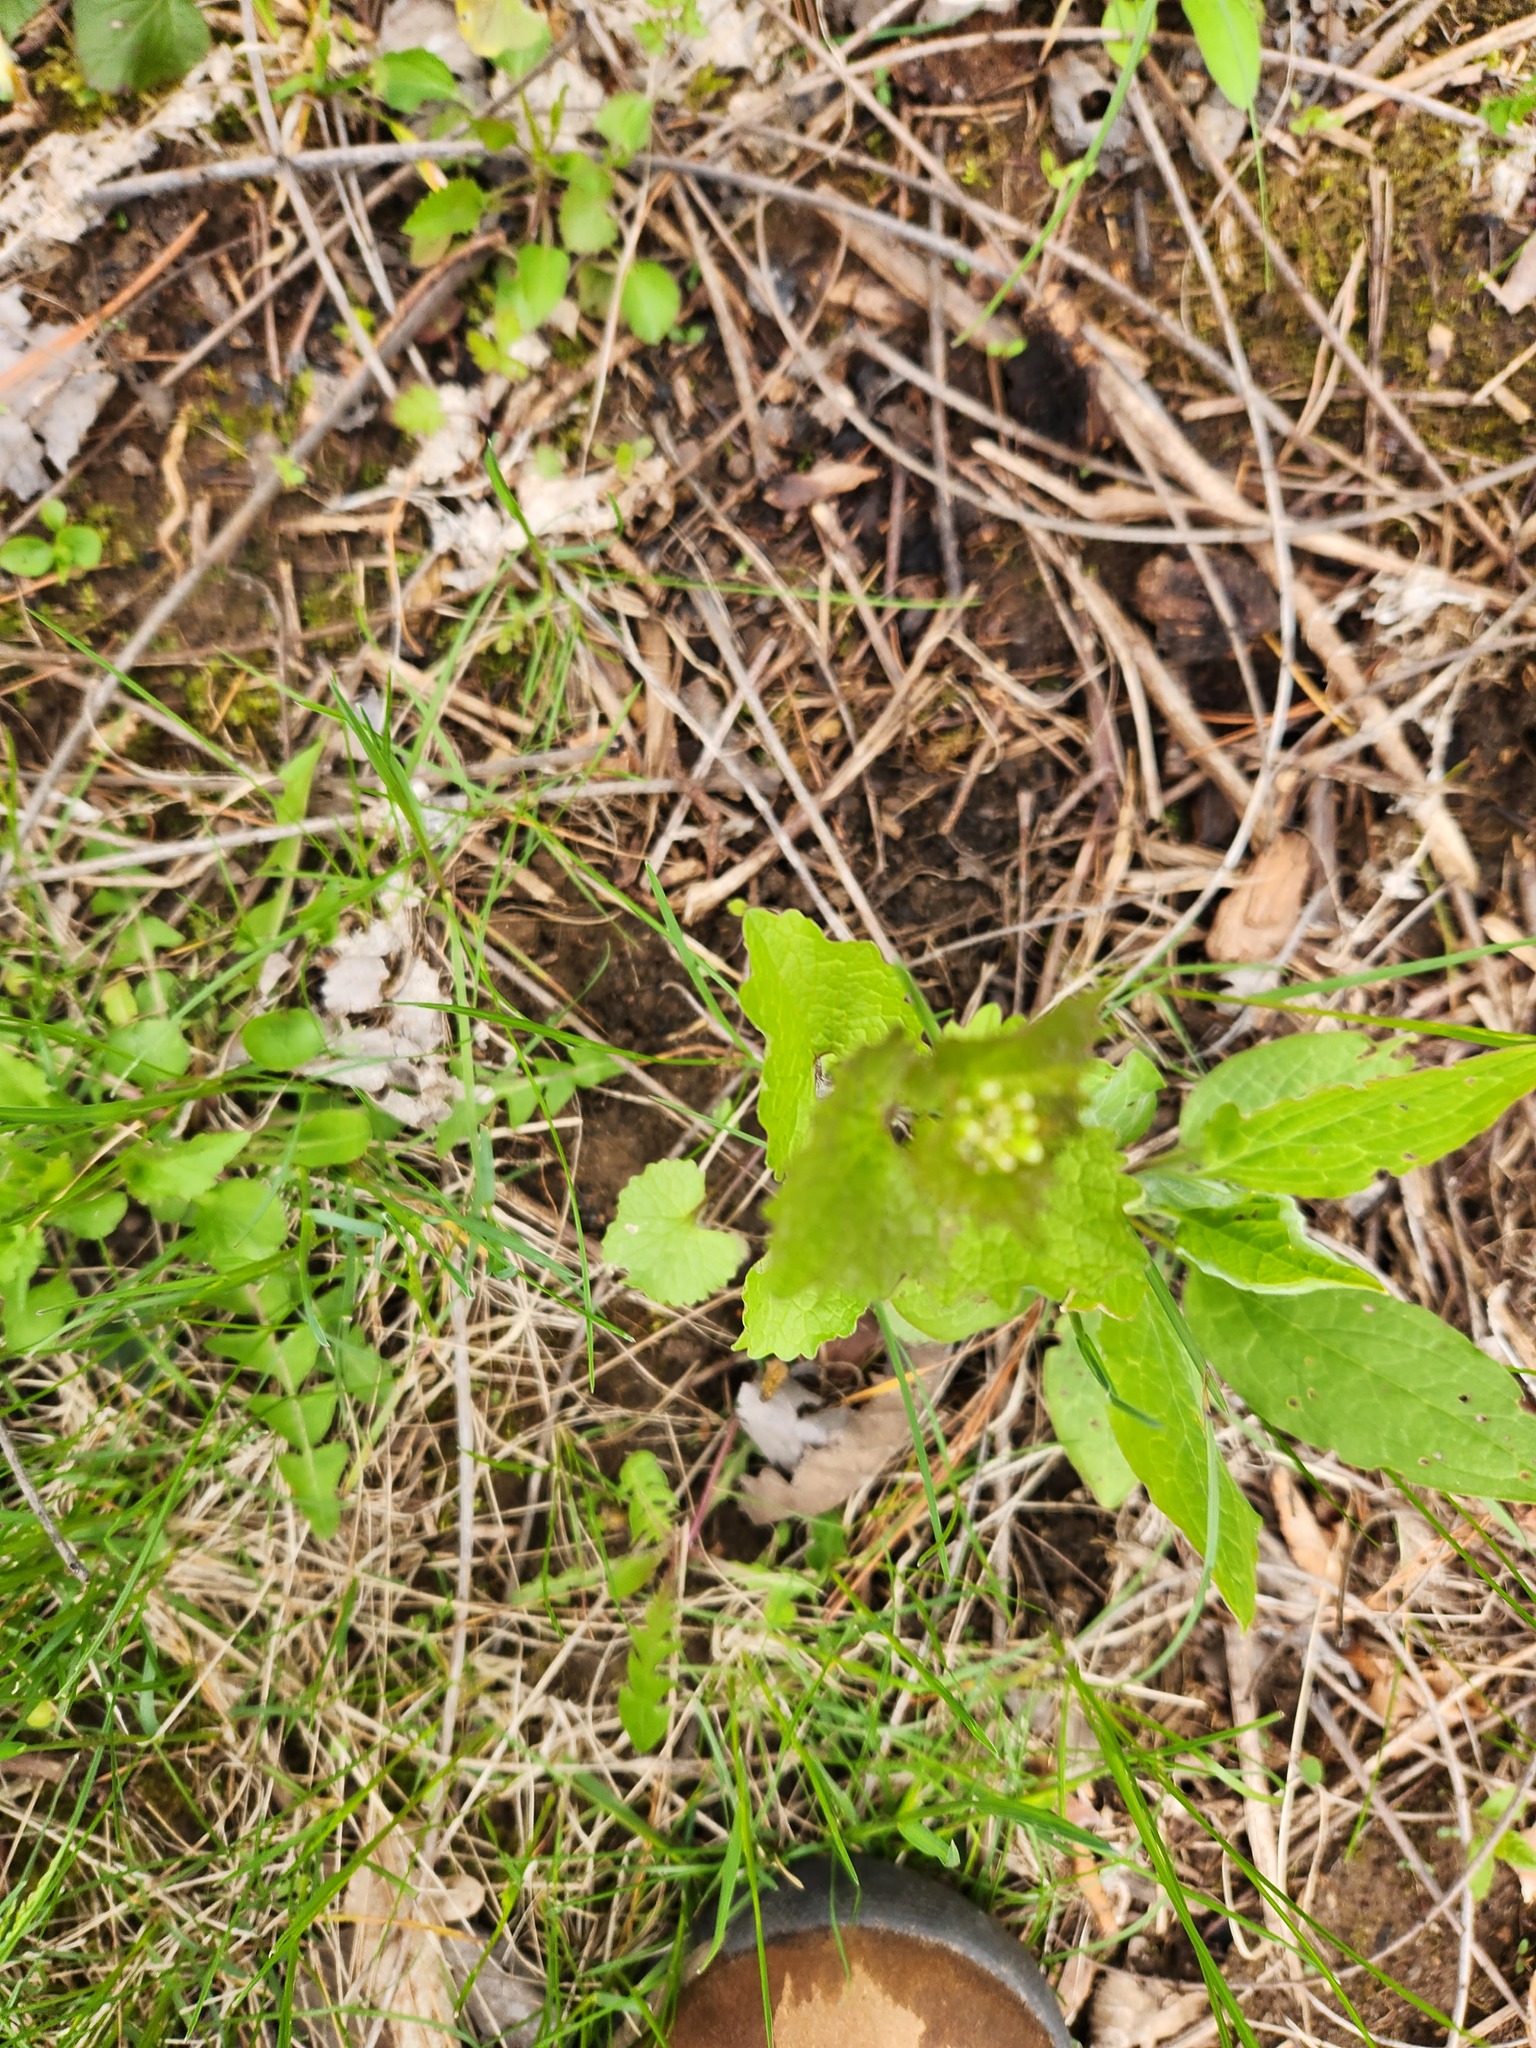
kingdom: Plantae
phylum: Tracheophyta
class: Magnoliopsida
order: Brassicales
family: Brassicaceae
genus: Alliaria
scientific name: Alliaria petiolata
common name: Garlic mustard
